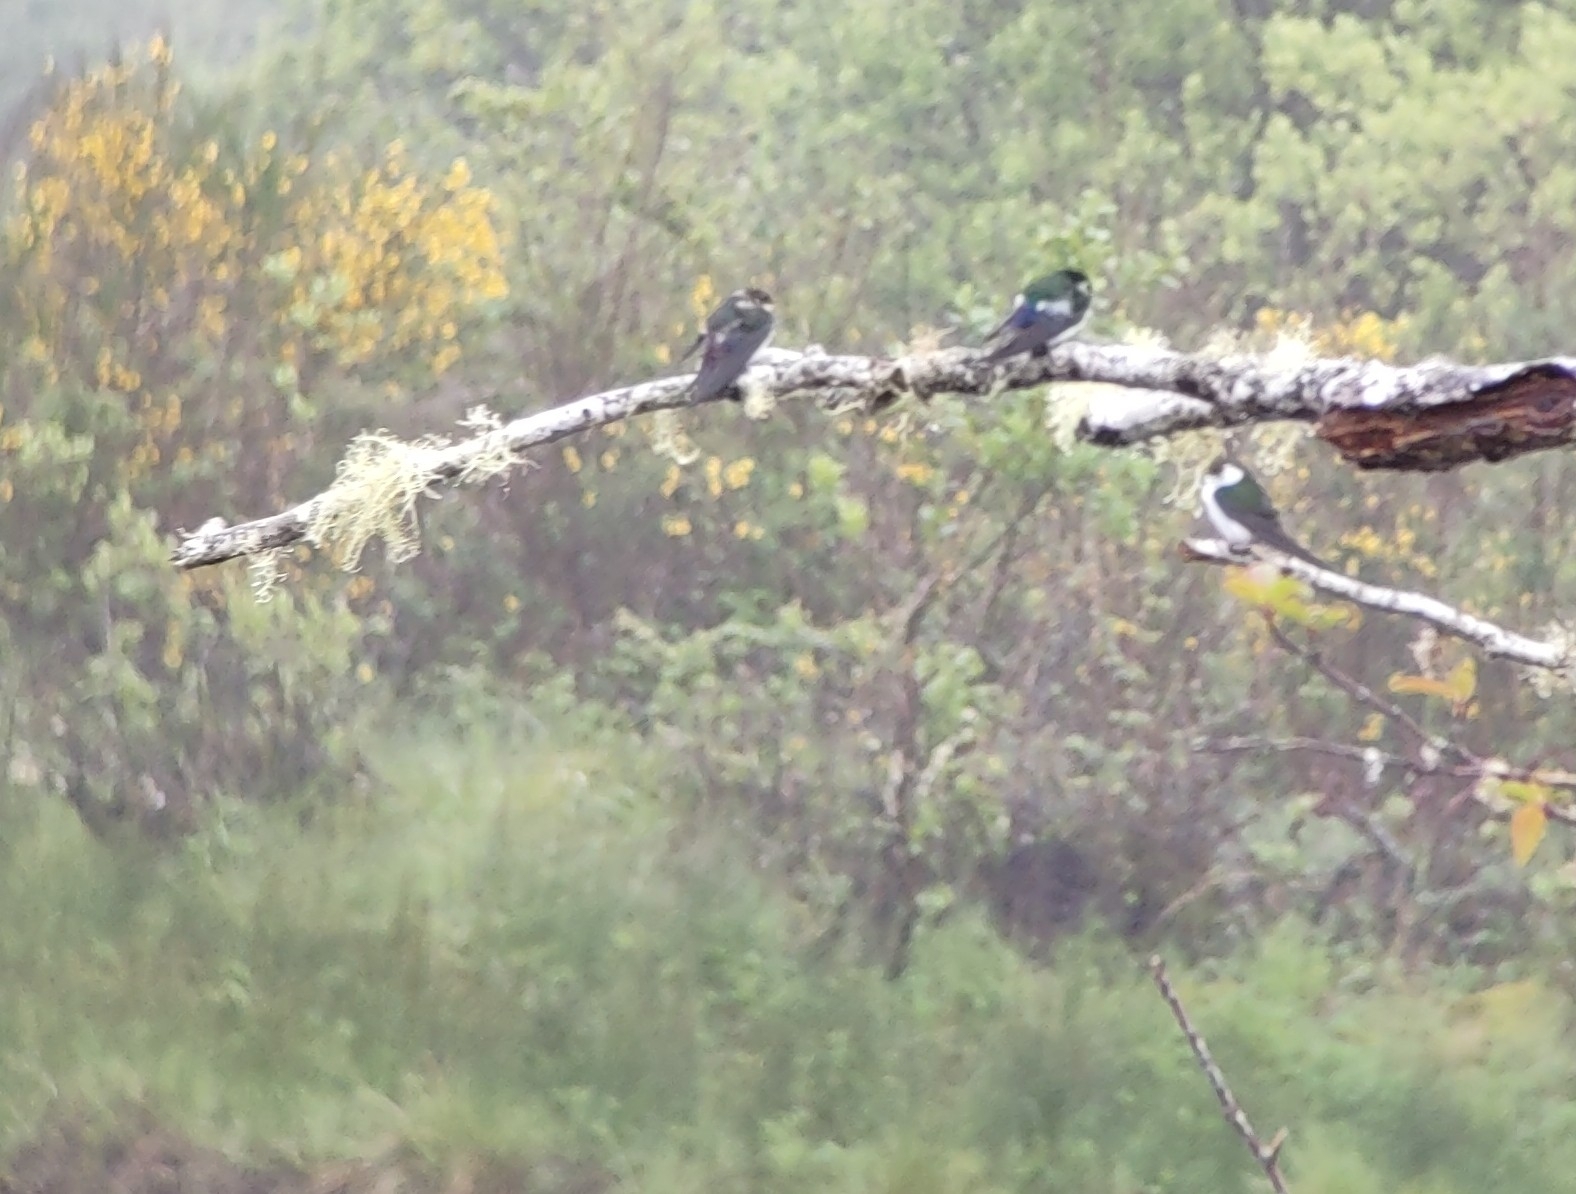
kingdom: Animalia
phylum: Chordata
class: Aves
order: Passeriformes
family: Hirundinidae
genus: Tachycineta
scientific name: Tachycineta thalassina
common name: Violet-green swallow
